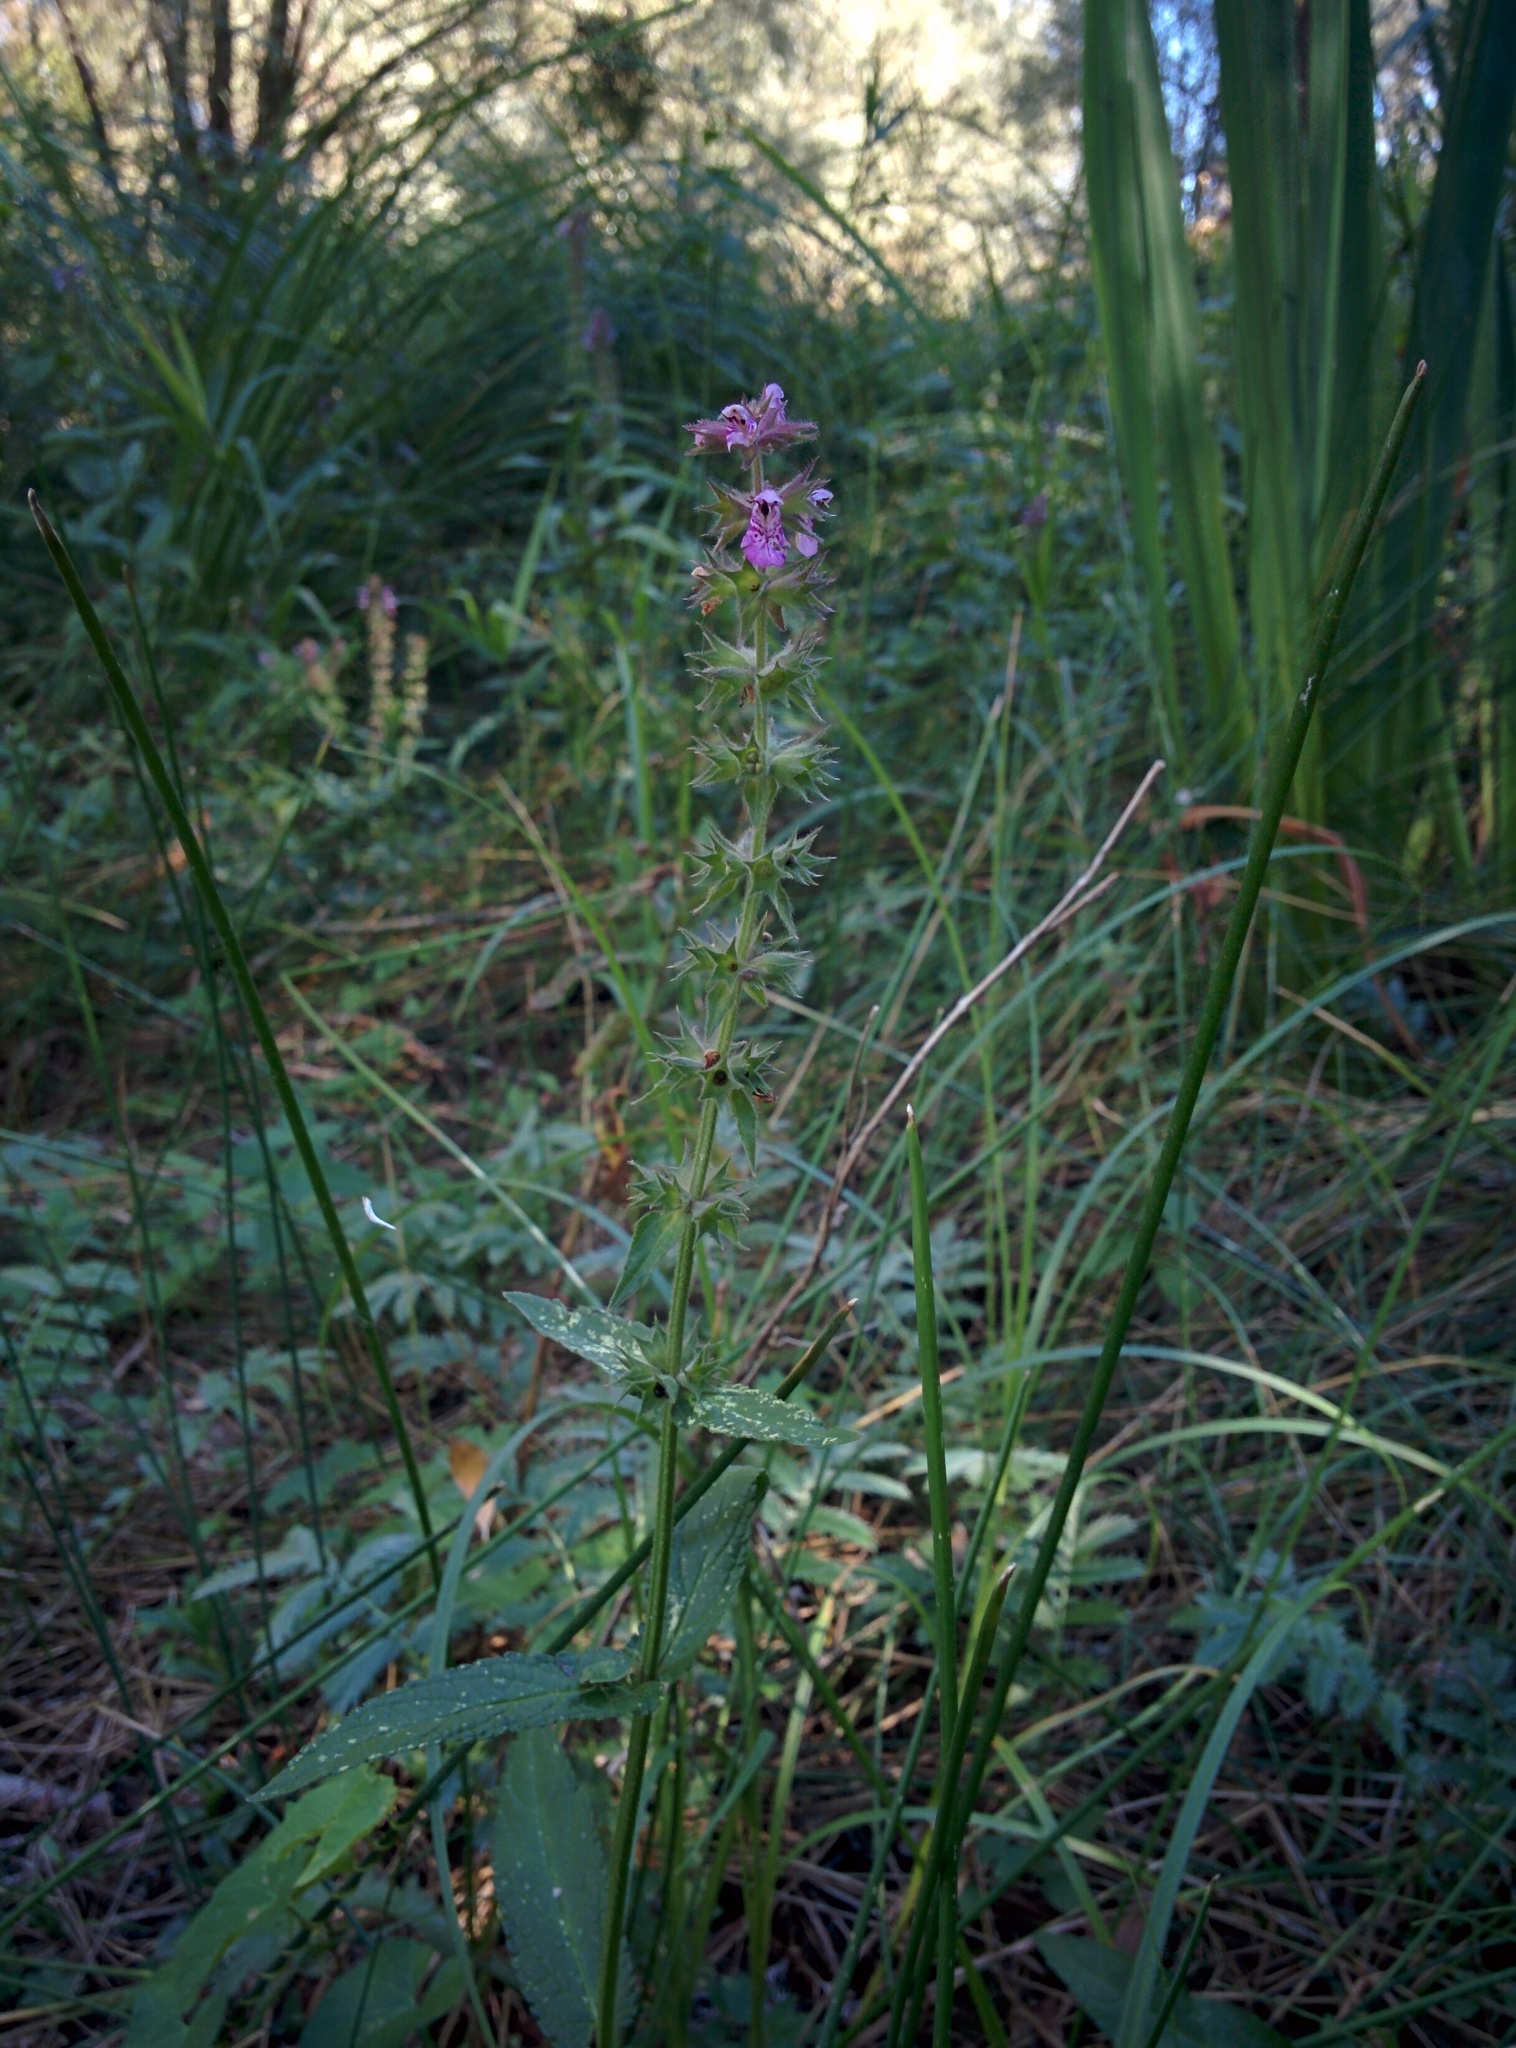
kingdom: Plantae
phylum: Tracheophyta
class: Magnoliopsida
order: Lamiales
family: Lamiaceae
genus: Stachys
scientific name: Stachys palustris
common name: Marsh woundwort
